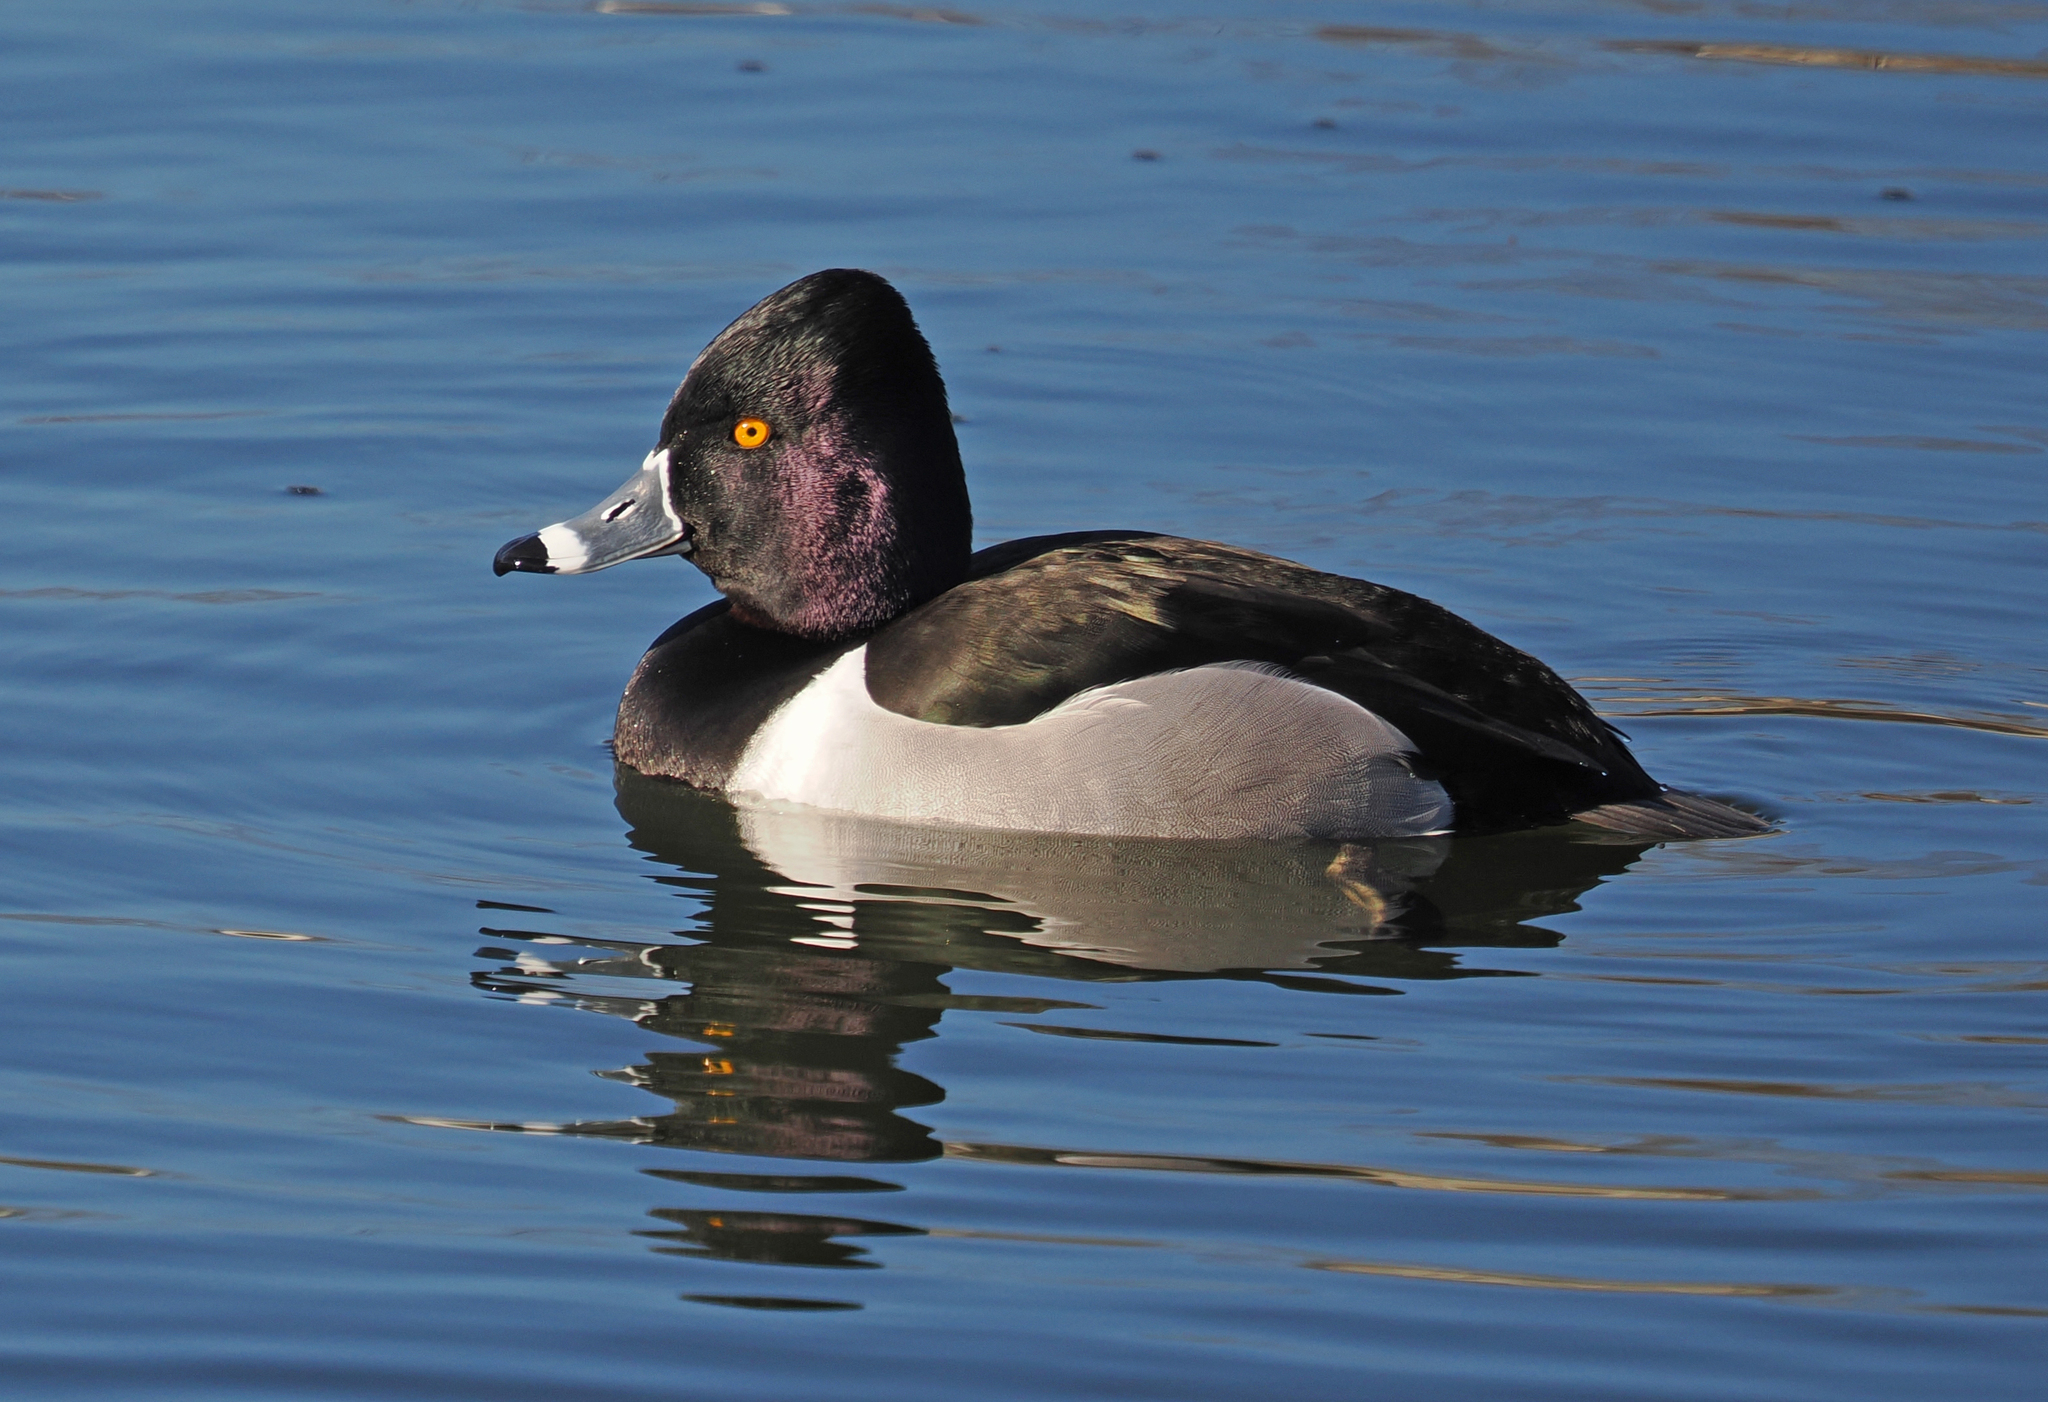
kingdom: Animalia
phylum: Chordata
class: Aves
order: Anseriformes
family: Anatidae
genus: Aythya
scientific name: Aythya collaris
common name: Ring-necked duck
